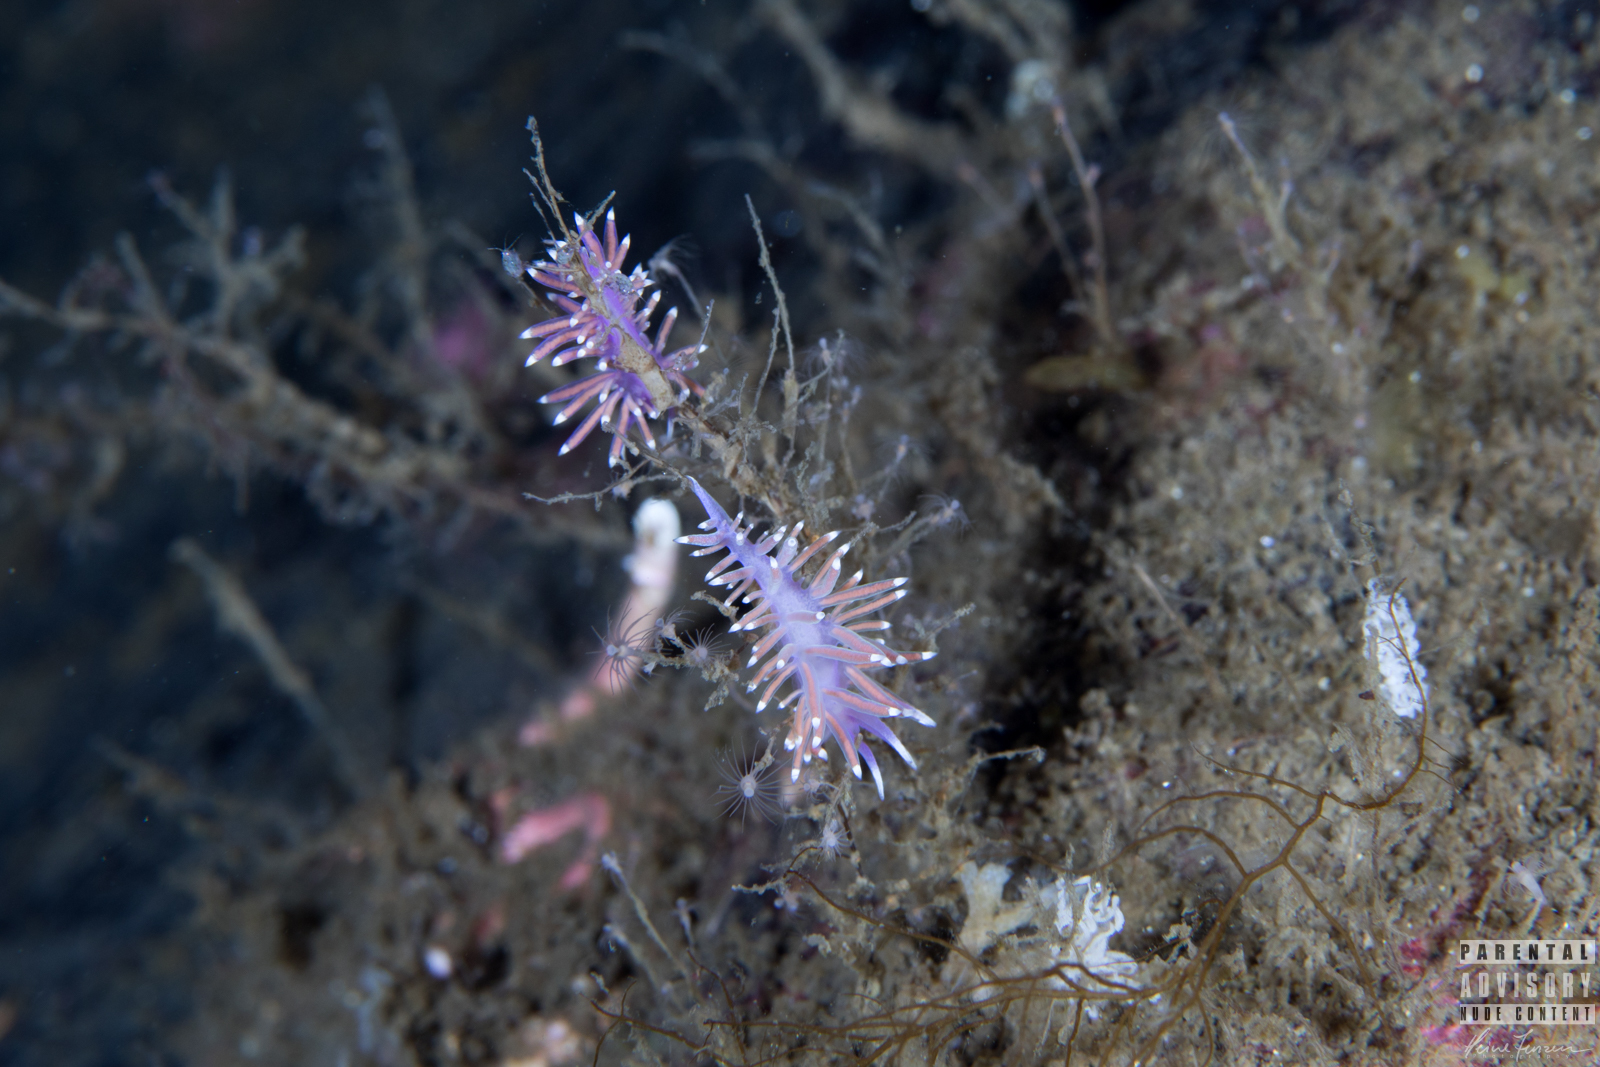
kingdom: Animalia
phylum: Mollusca
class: Gastropoda
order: Nudibranchia
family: Flabellinidae
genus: Edmundsella
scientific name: Edmundsella pedata
